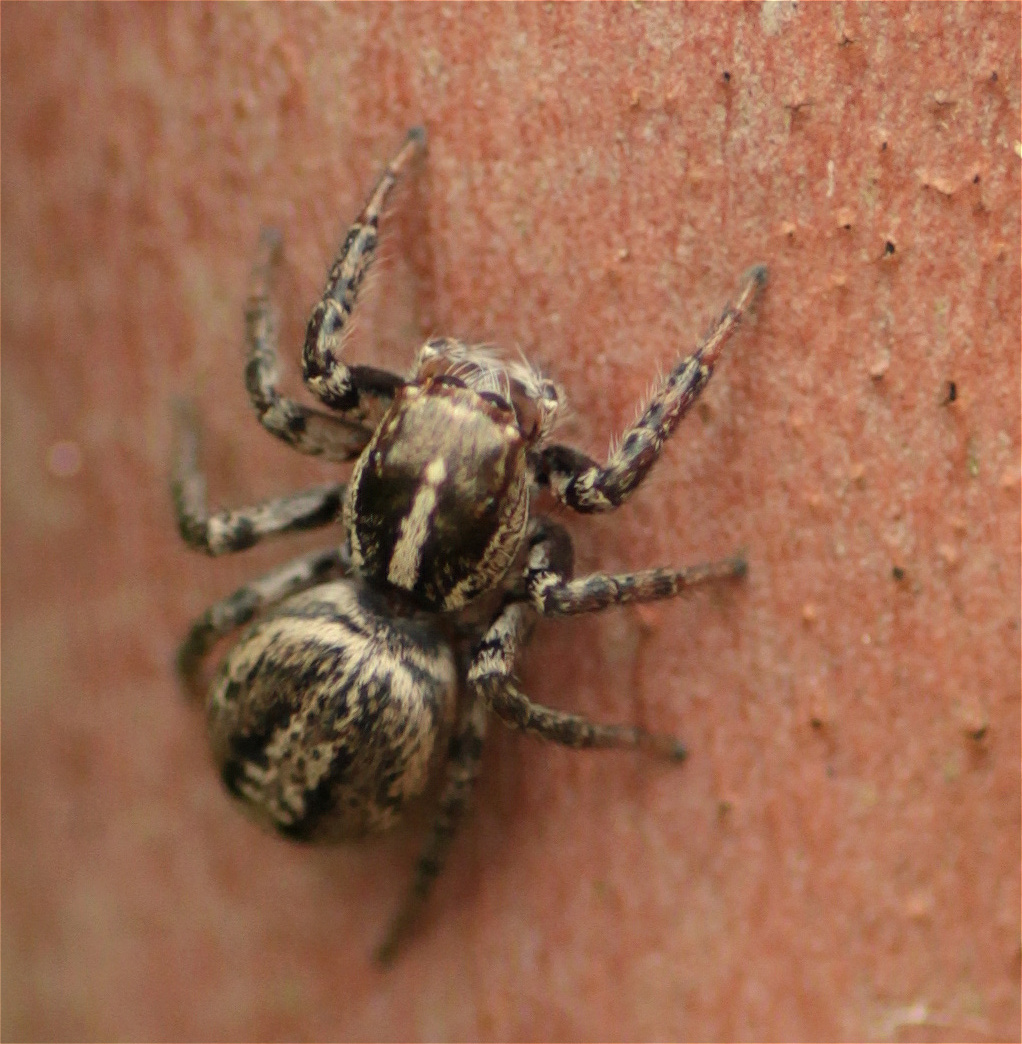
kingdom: Animalia
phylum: Arthropoda
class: Arachnida
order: Araneae
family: Salticidae
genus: Leptofreya
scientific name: Leptofreya ambigua
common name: Jumping spider
